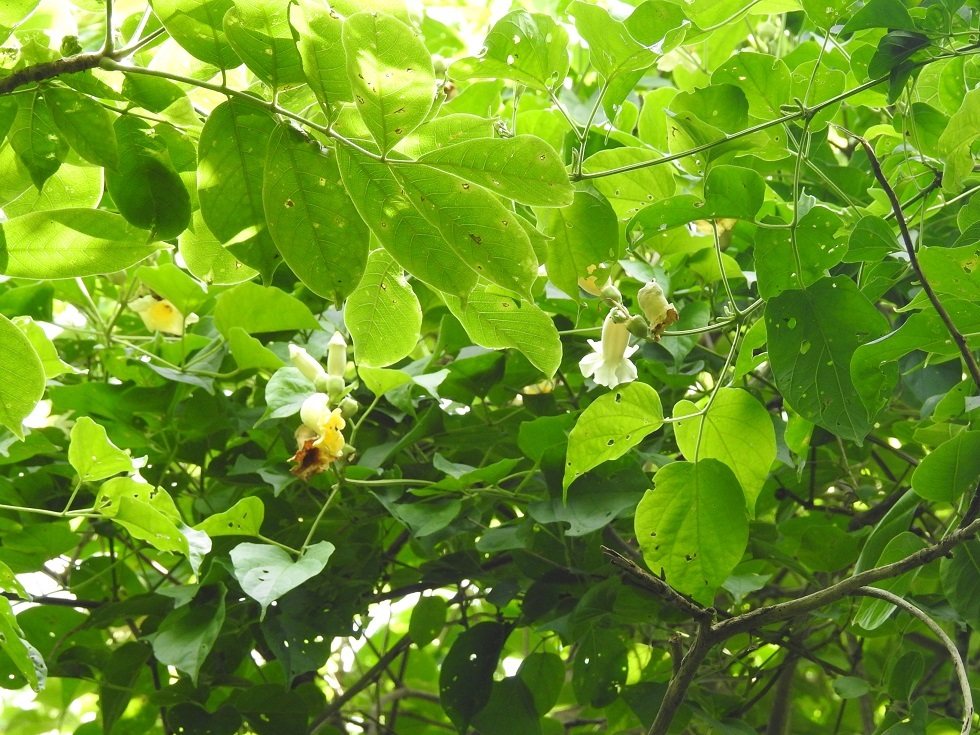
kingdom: Plantae
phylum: Tracheophyta
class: Magnoliopsida
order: Lamiales
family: Bignoniaceae
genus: Amphilophium
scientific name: Amphilophium crucigerum
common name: Monkey comb
